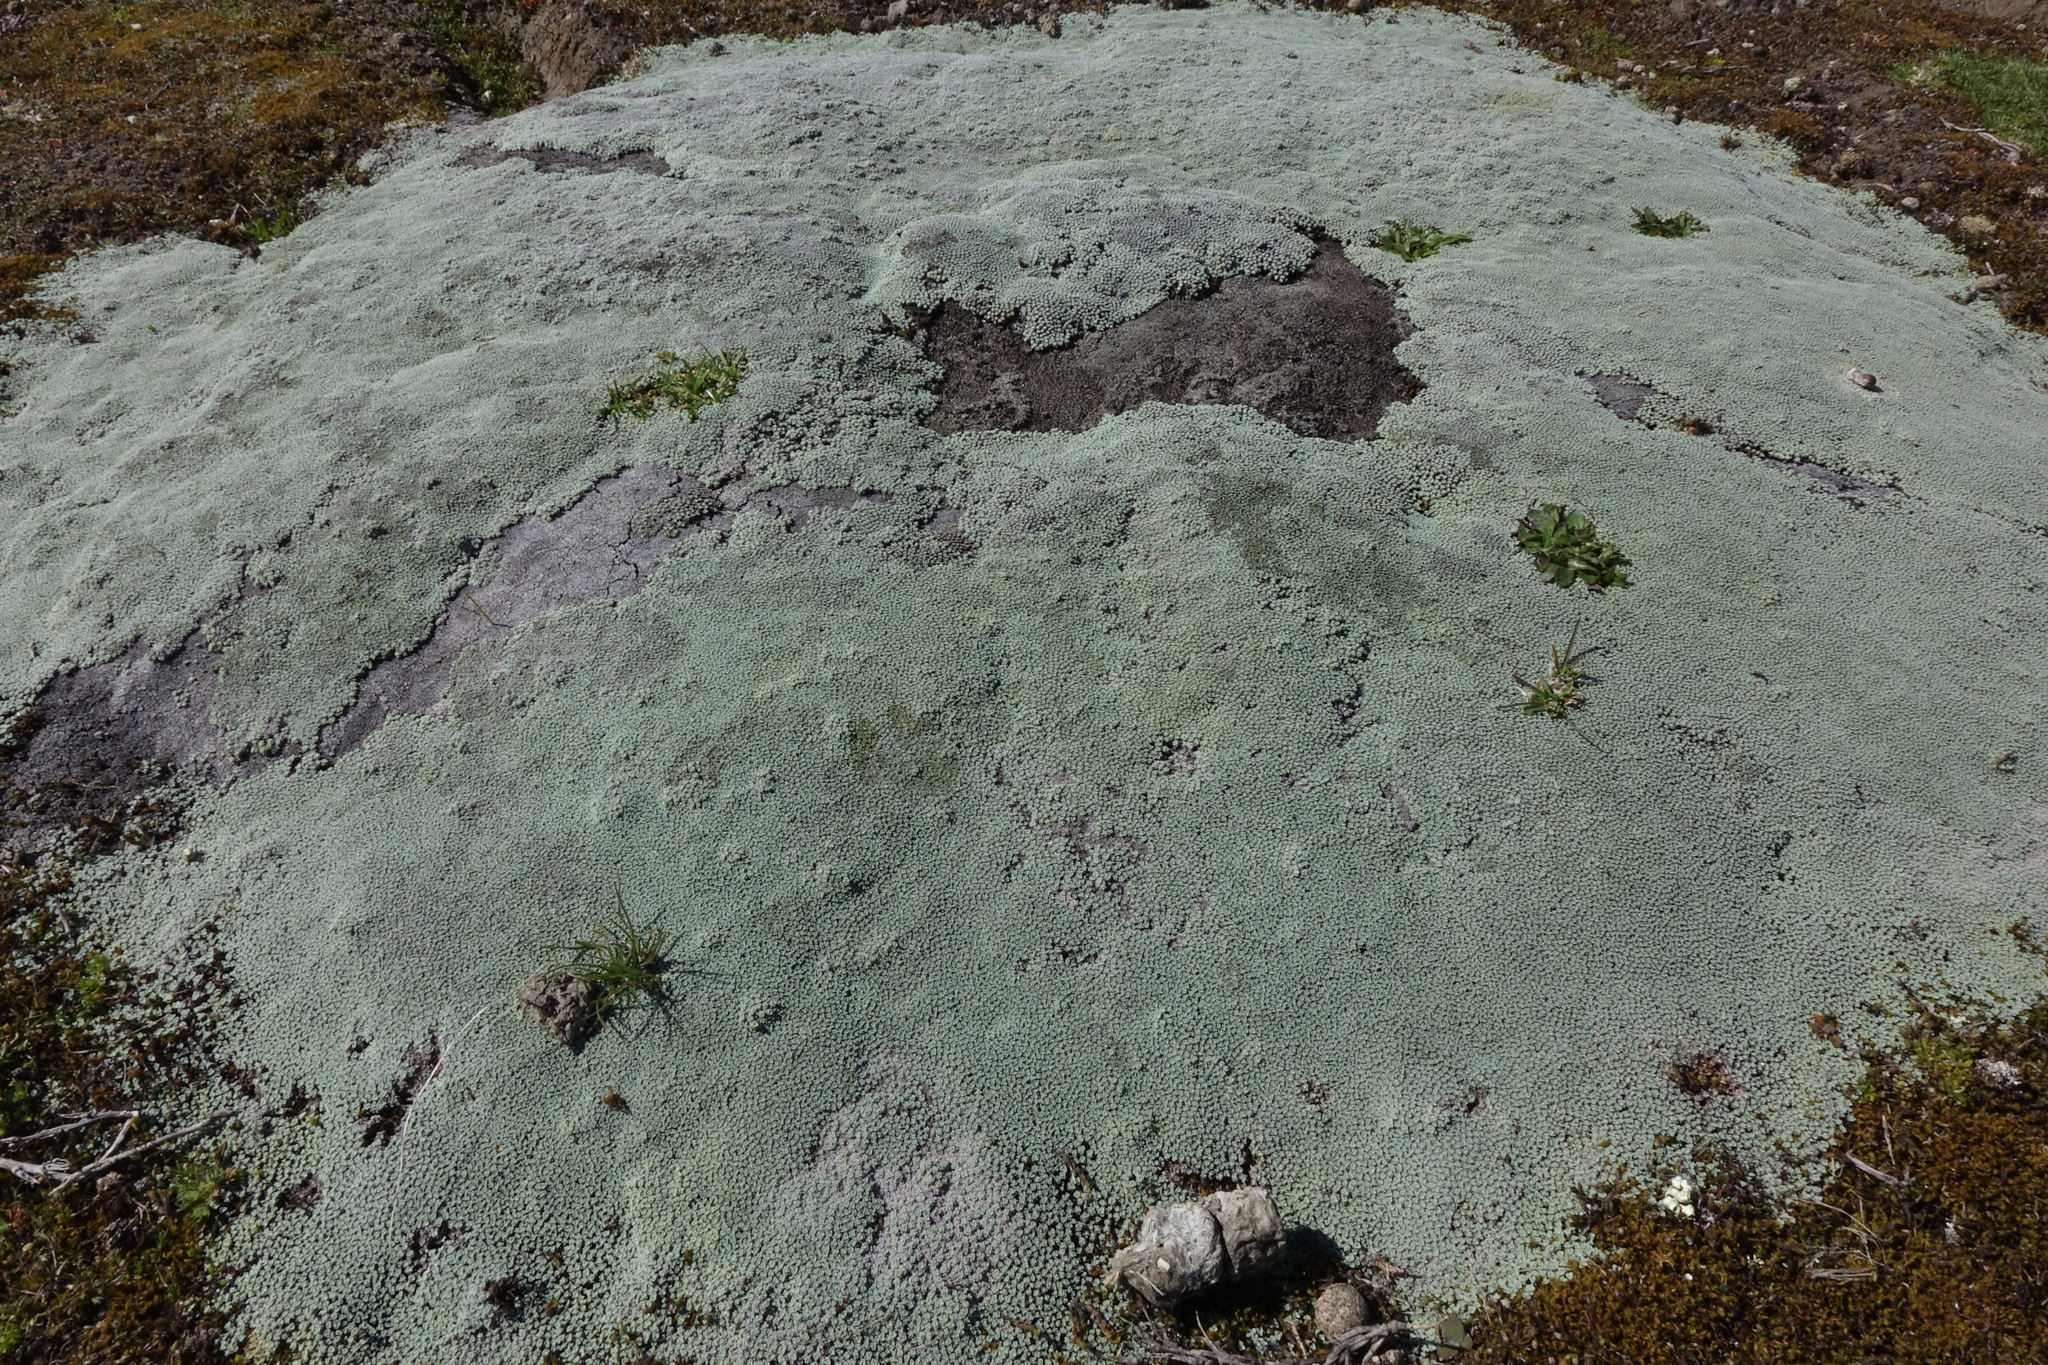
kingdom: Plantae
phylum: Tracheophyta
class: Magnoliopsida
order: Asterales
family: Asteraceae
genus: Raoulia
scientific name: Raoulia australis
